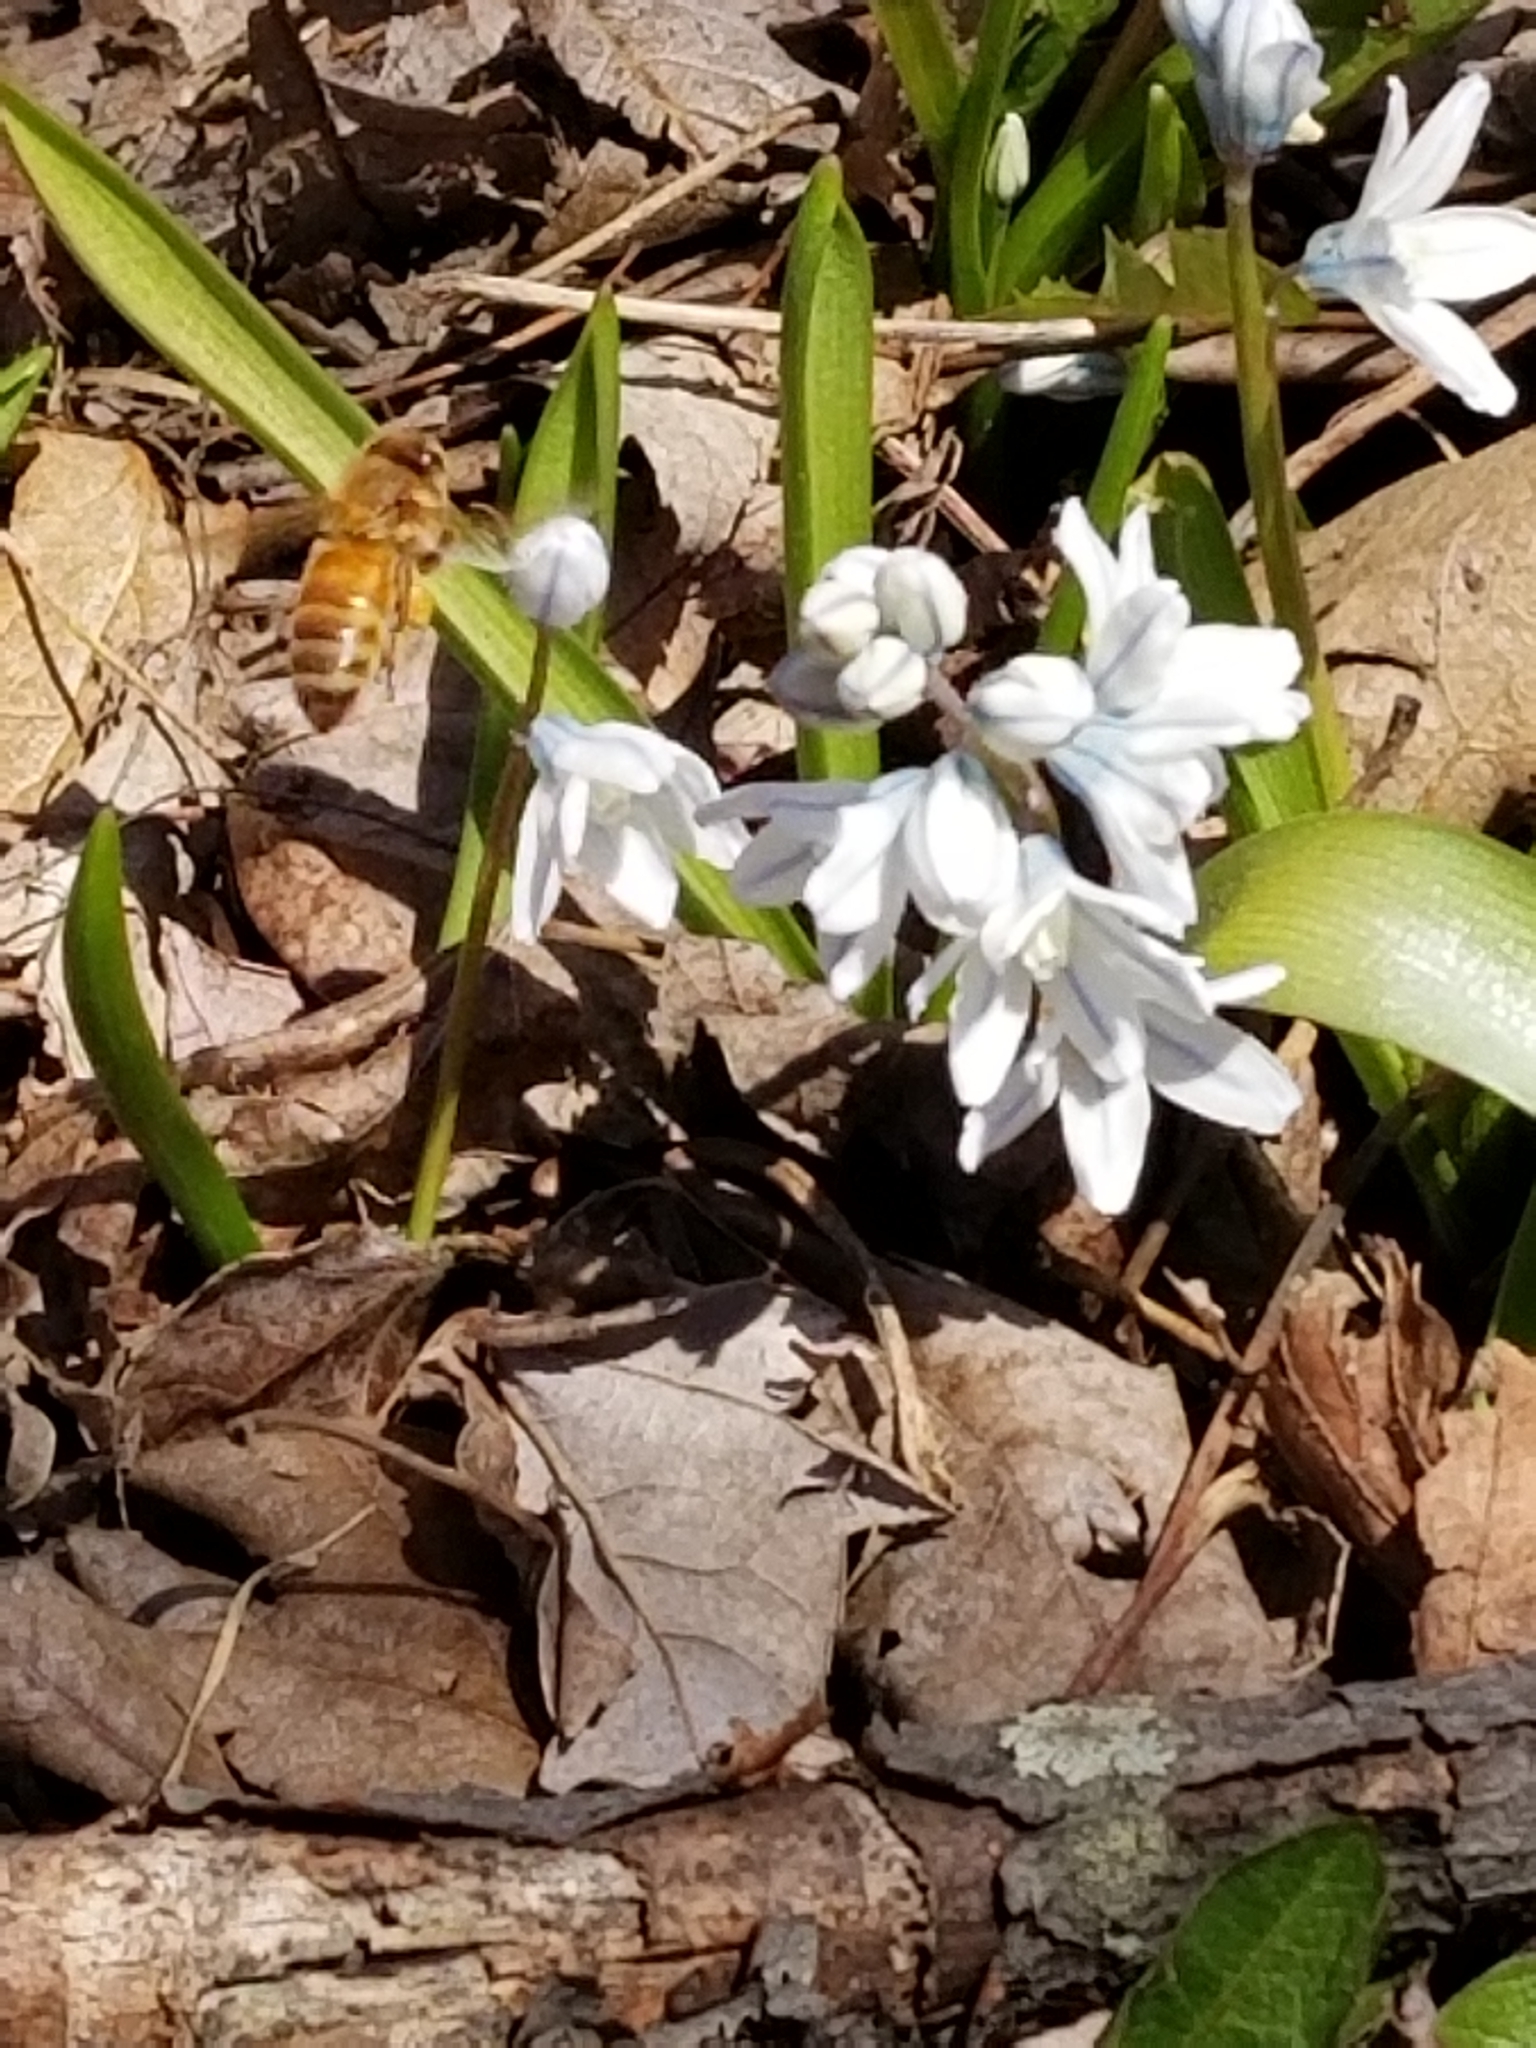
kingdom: Animalia
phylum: Arthropoda
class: Insecta
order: Hymenoptera
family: Apidae
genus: Apis
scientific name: Apis mellifera
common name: Honey bee
